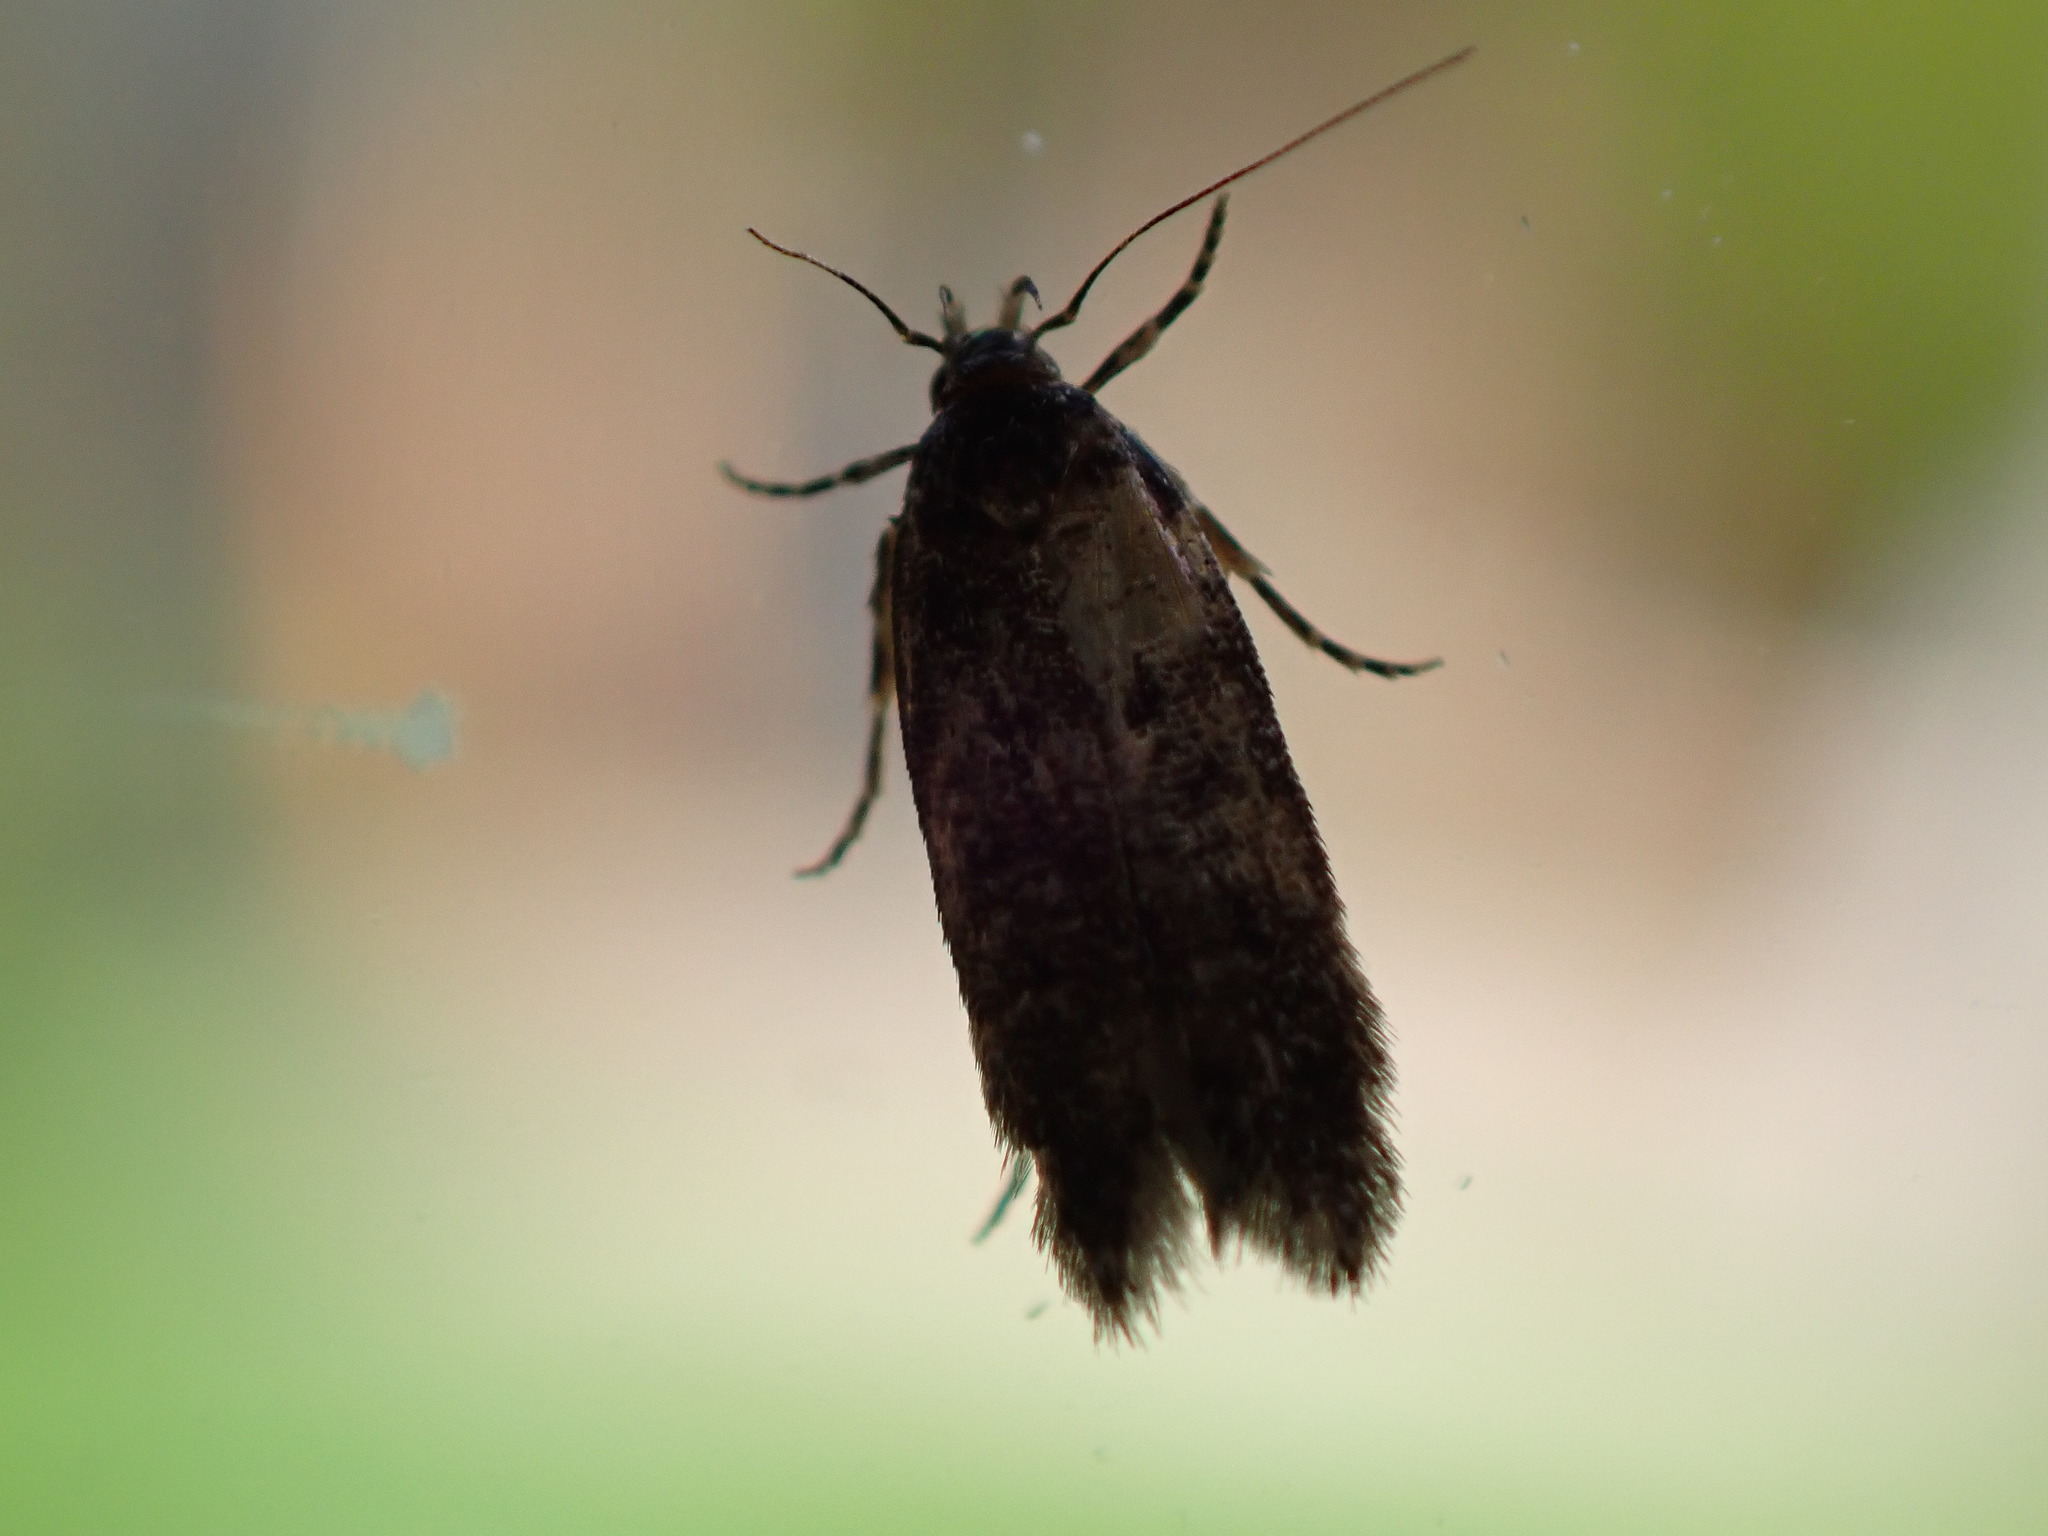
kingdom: Animalia
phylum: Arthropoda
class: Insecta
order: Lepidoptera
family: Oecophoridae
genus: Hofmannophila
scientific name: Hofmannophila pseudospretella
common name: Brown house moth
